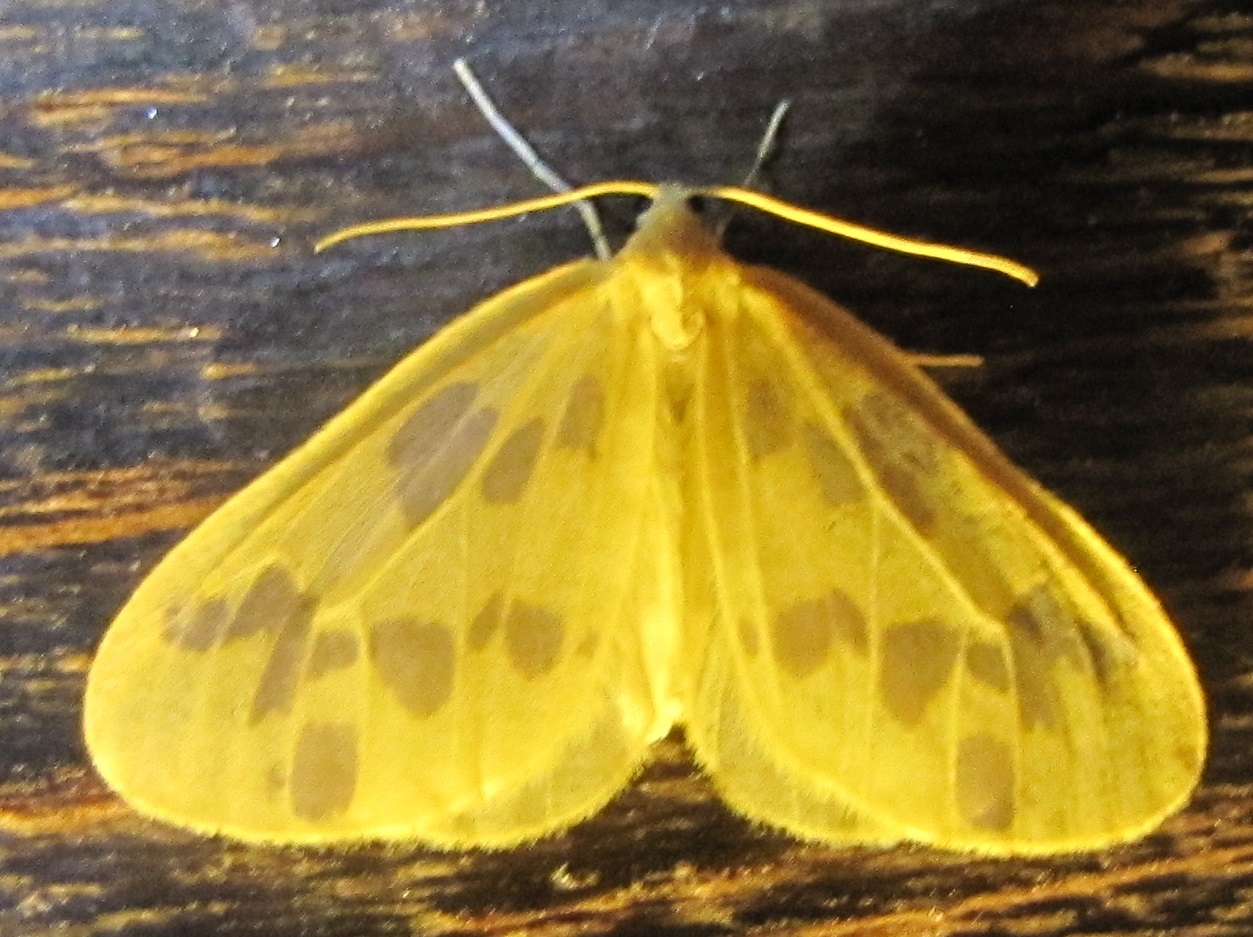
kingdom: Animalia
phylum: Arthropoda
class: Insecta
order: Lepidoptera
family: Geometridae
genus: Eubaphe
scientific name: Eubaphe mendica
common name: Beggar
